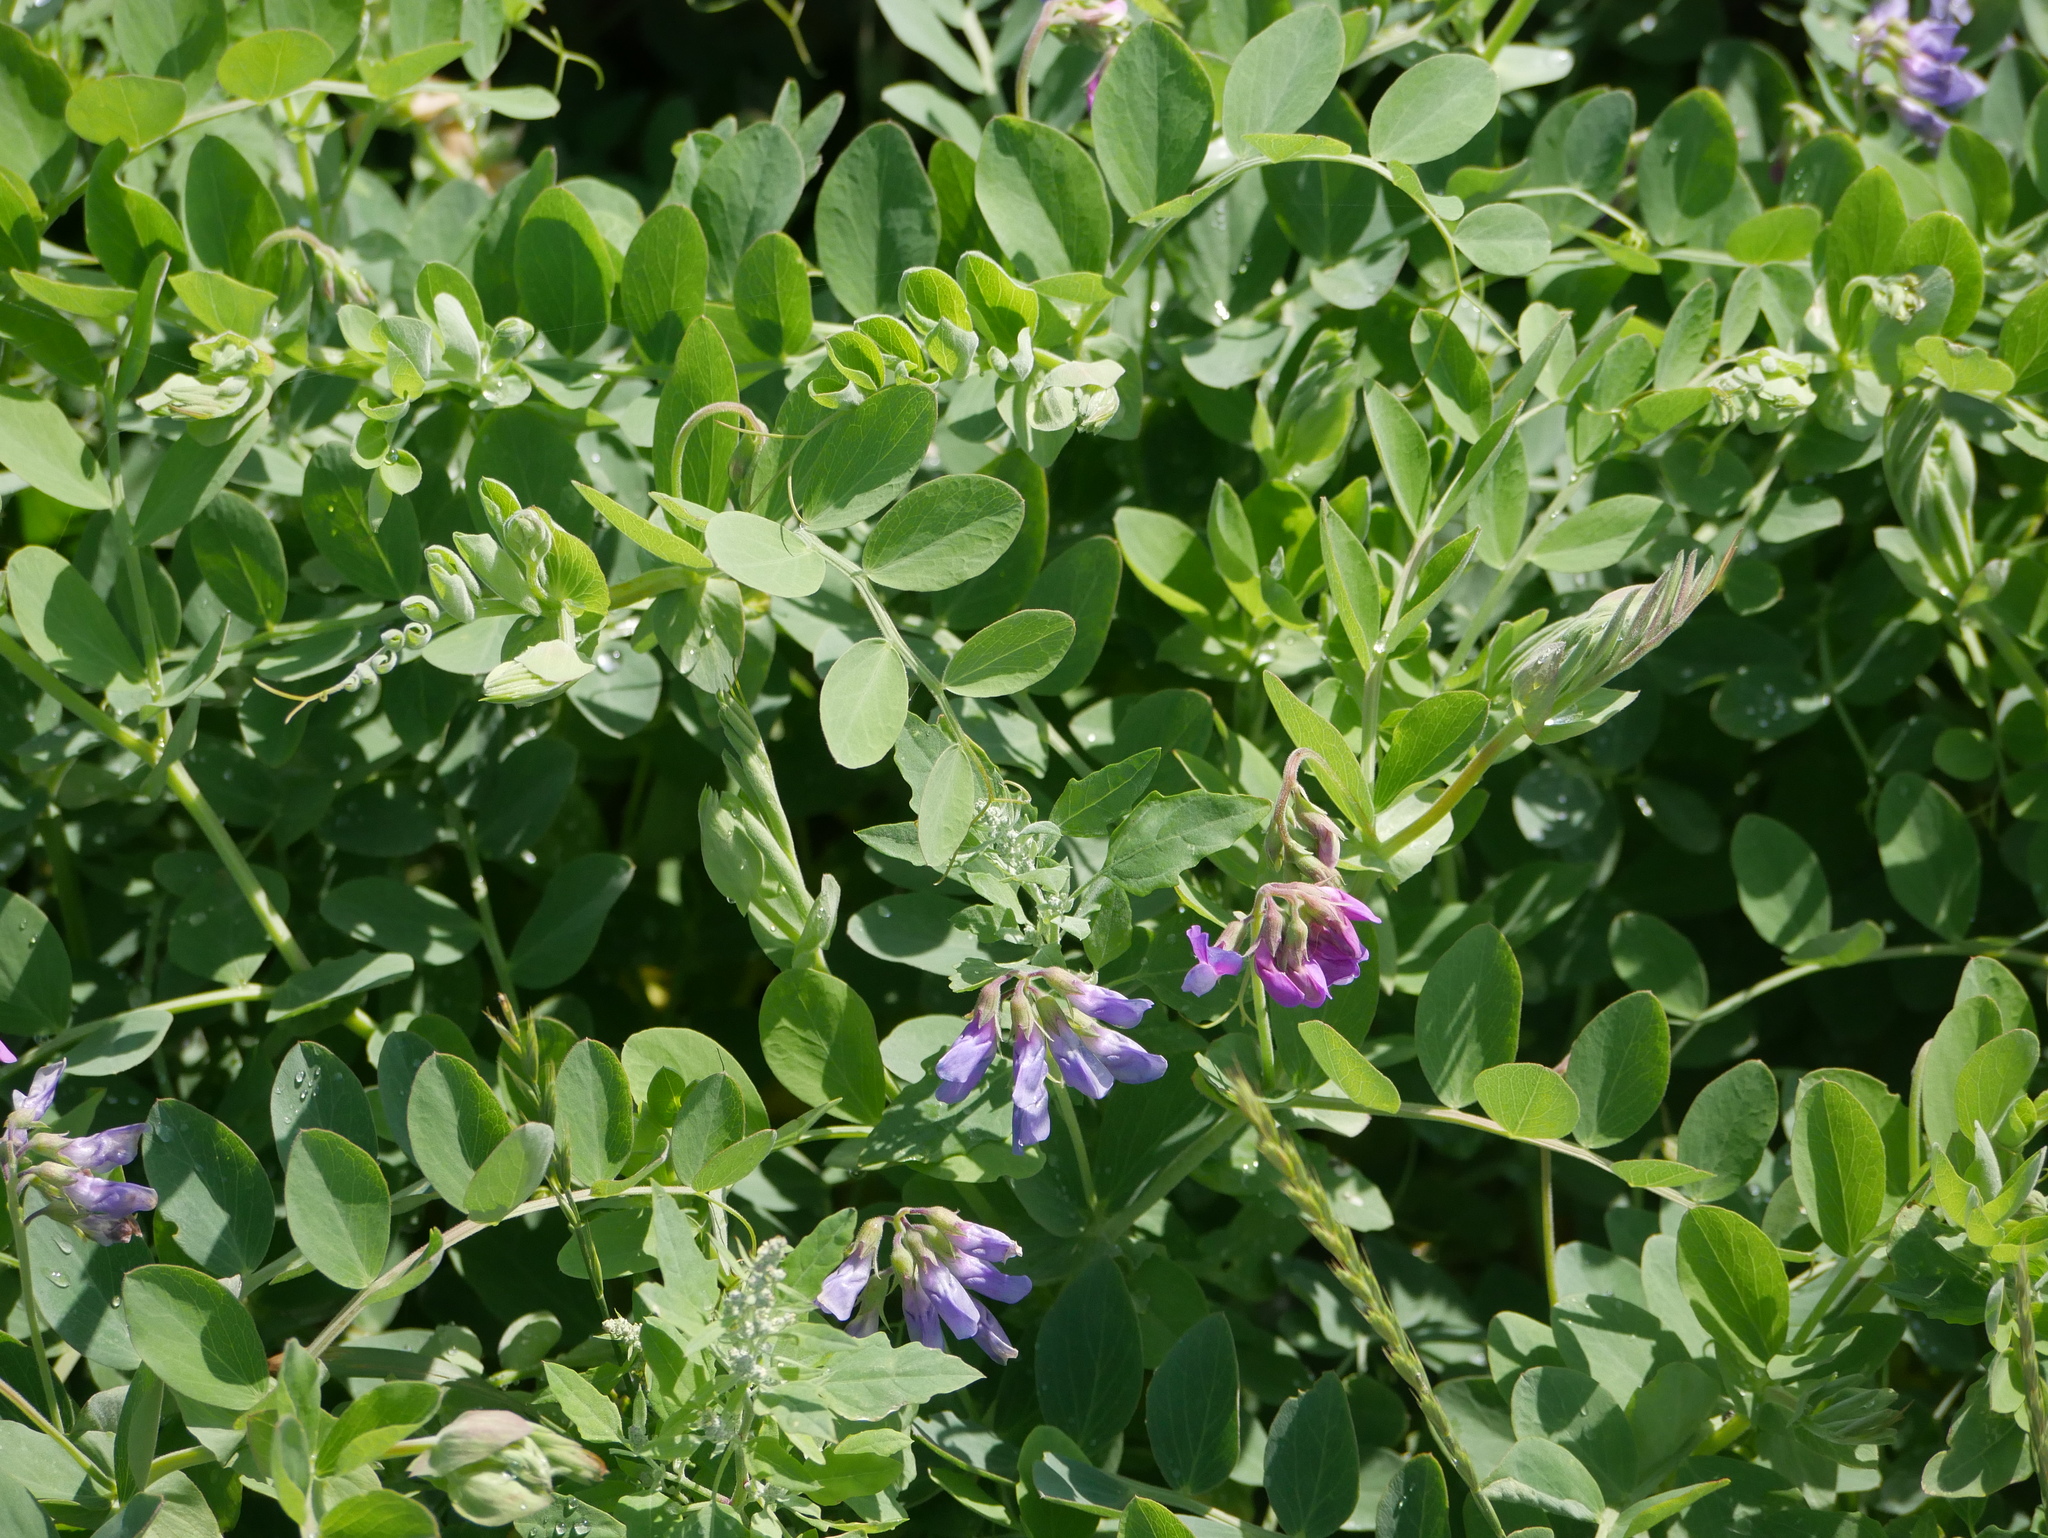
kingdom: Plantae
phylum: Tracheophyta
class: Magnoliopsida
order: Fabales
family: Fabaceae
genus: Lathyrus
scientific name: Lathyrus japonicus
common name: Sea pea
